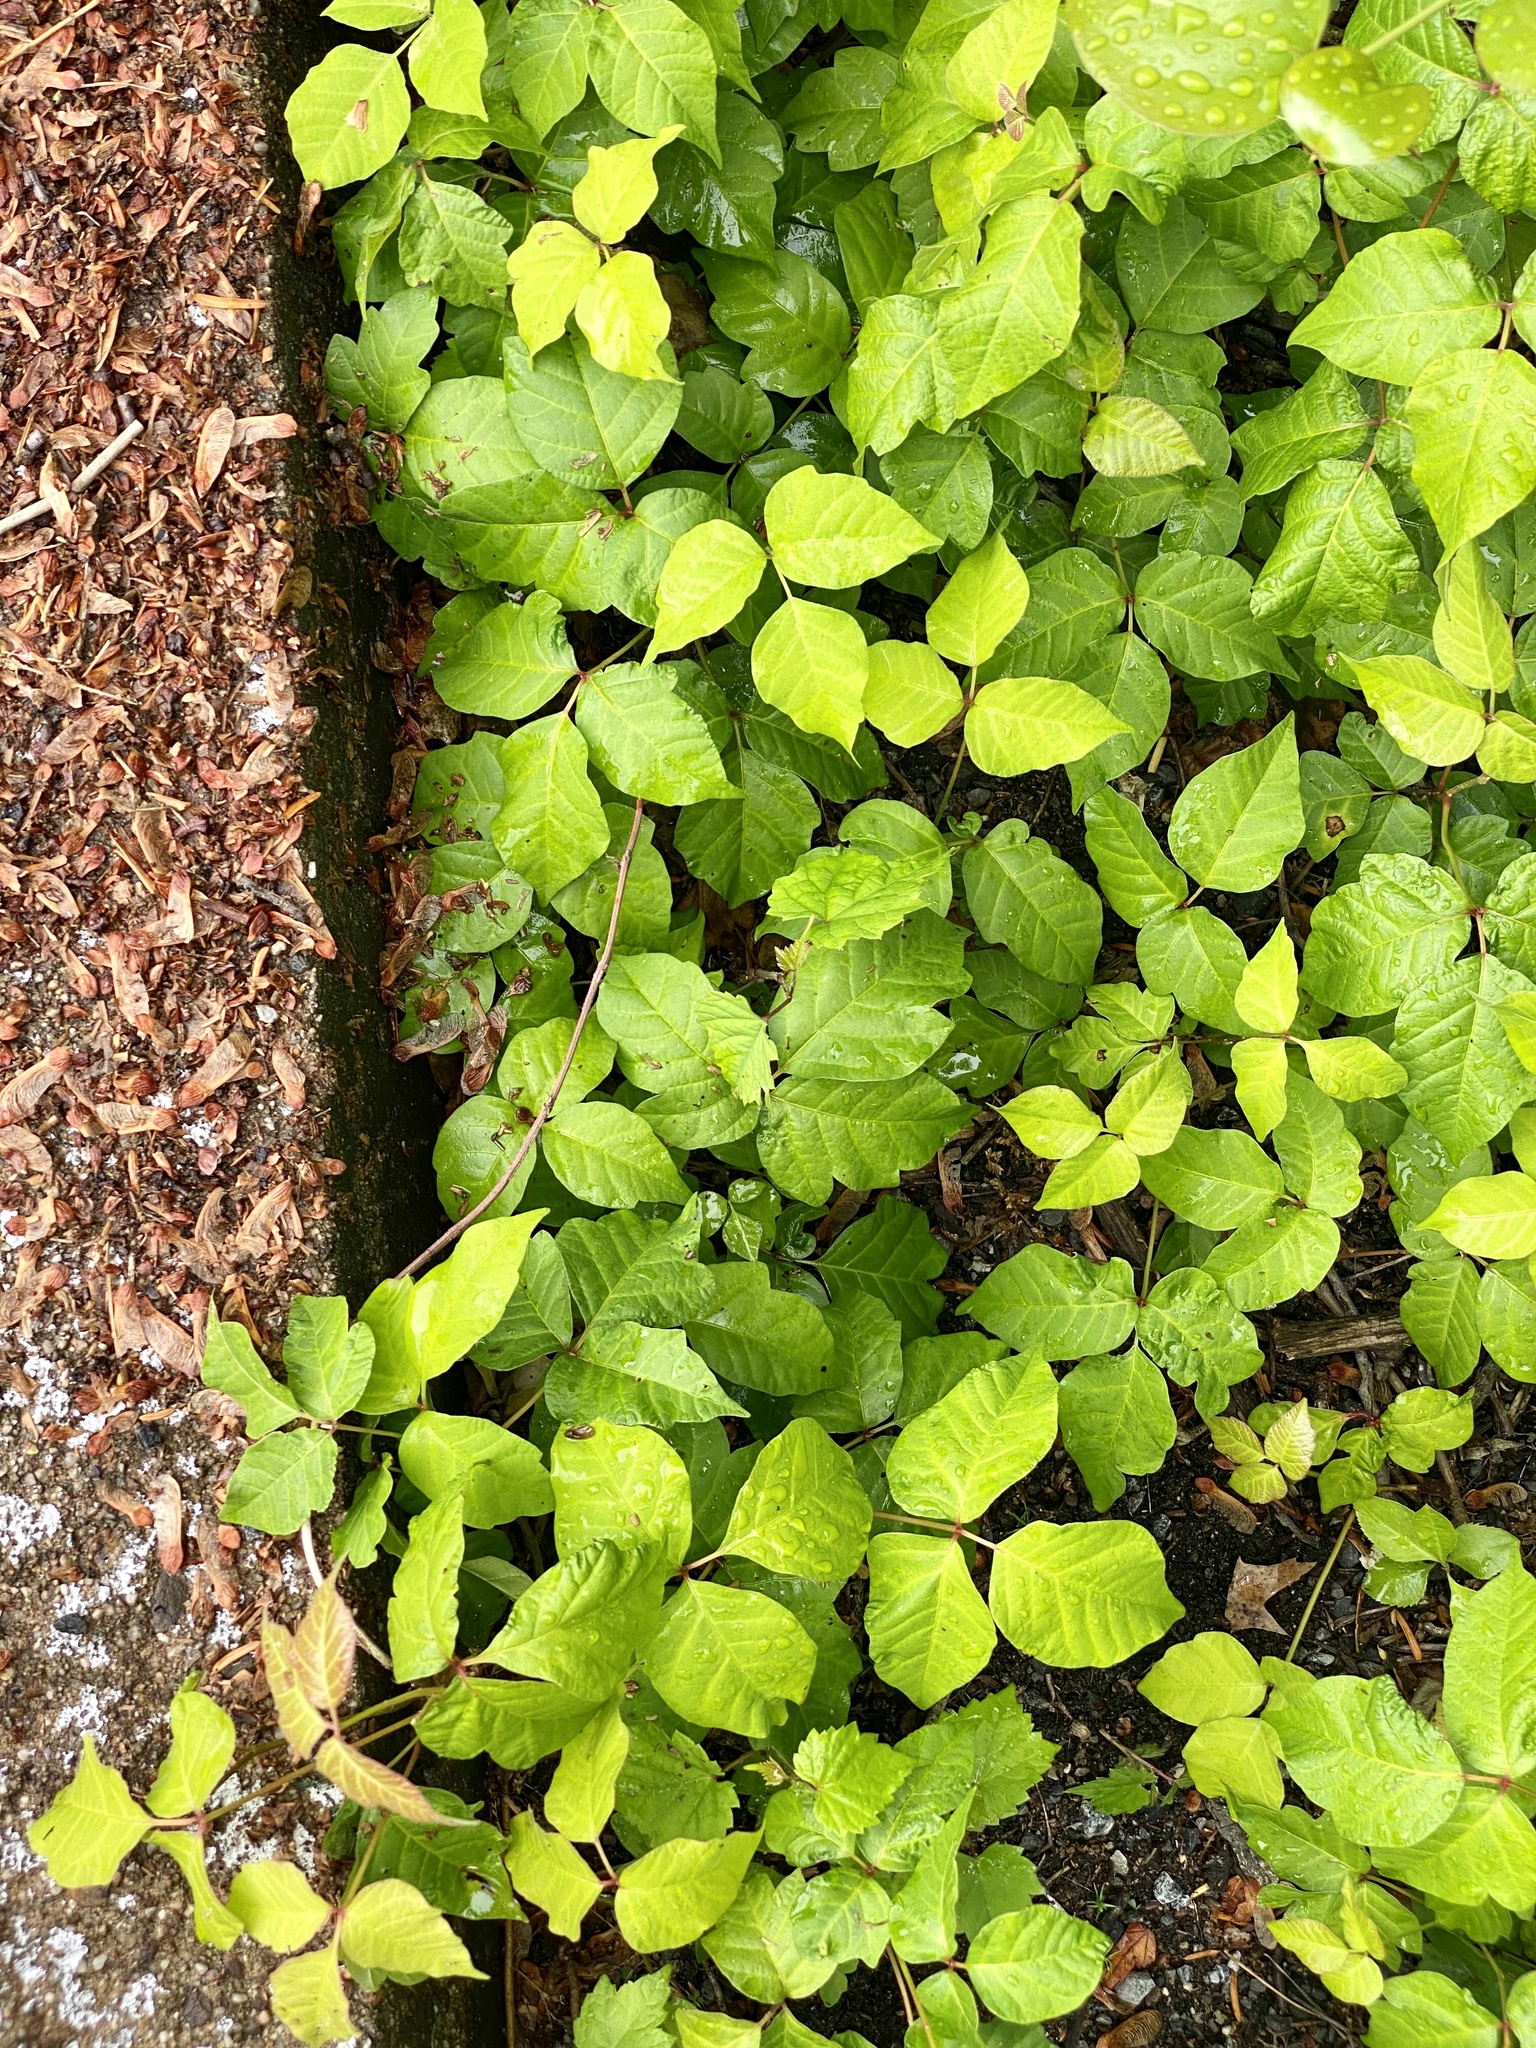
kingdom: Plantae
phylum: Tracheophyta
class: Magnoliopsida
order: Sapindales
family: Anacardiaceae
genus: Toxicodendron
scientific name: Toxicodendron radicans
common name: Poison ivy
